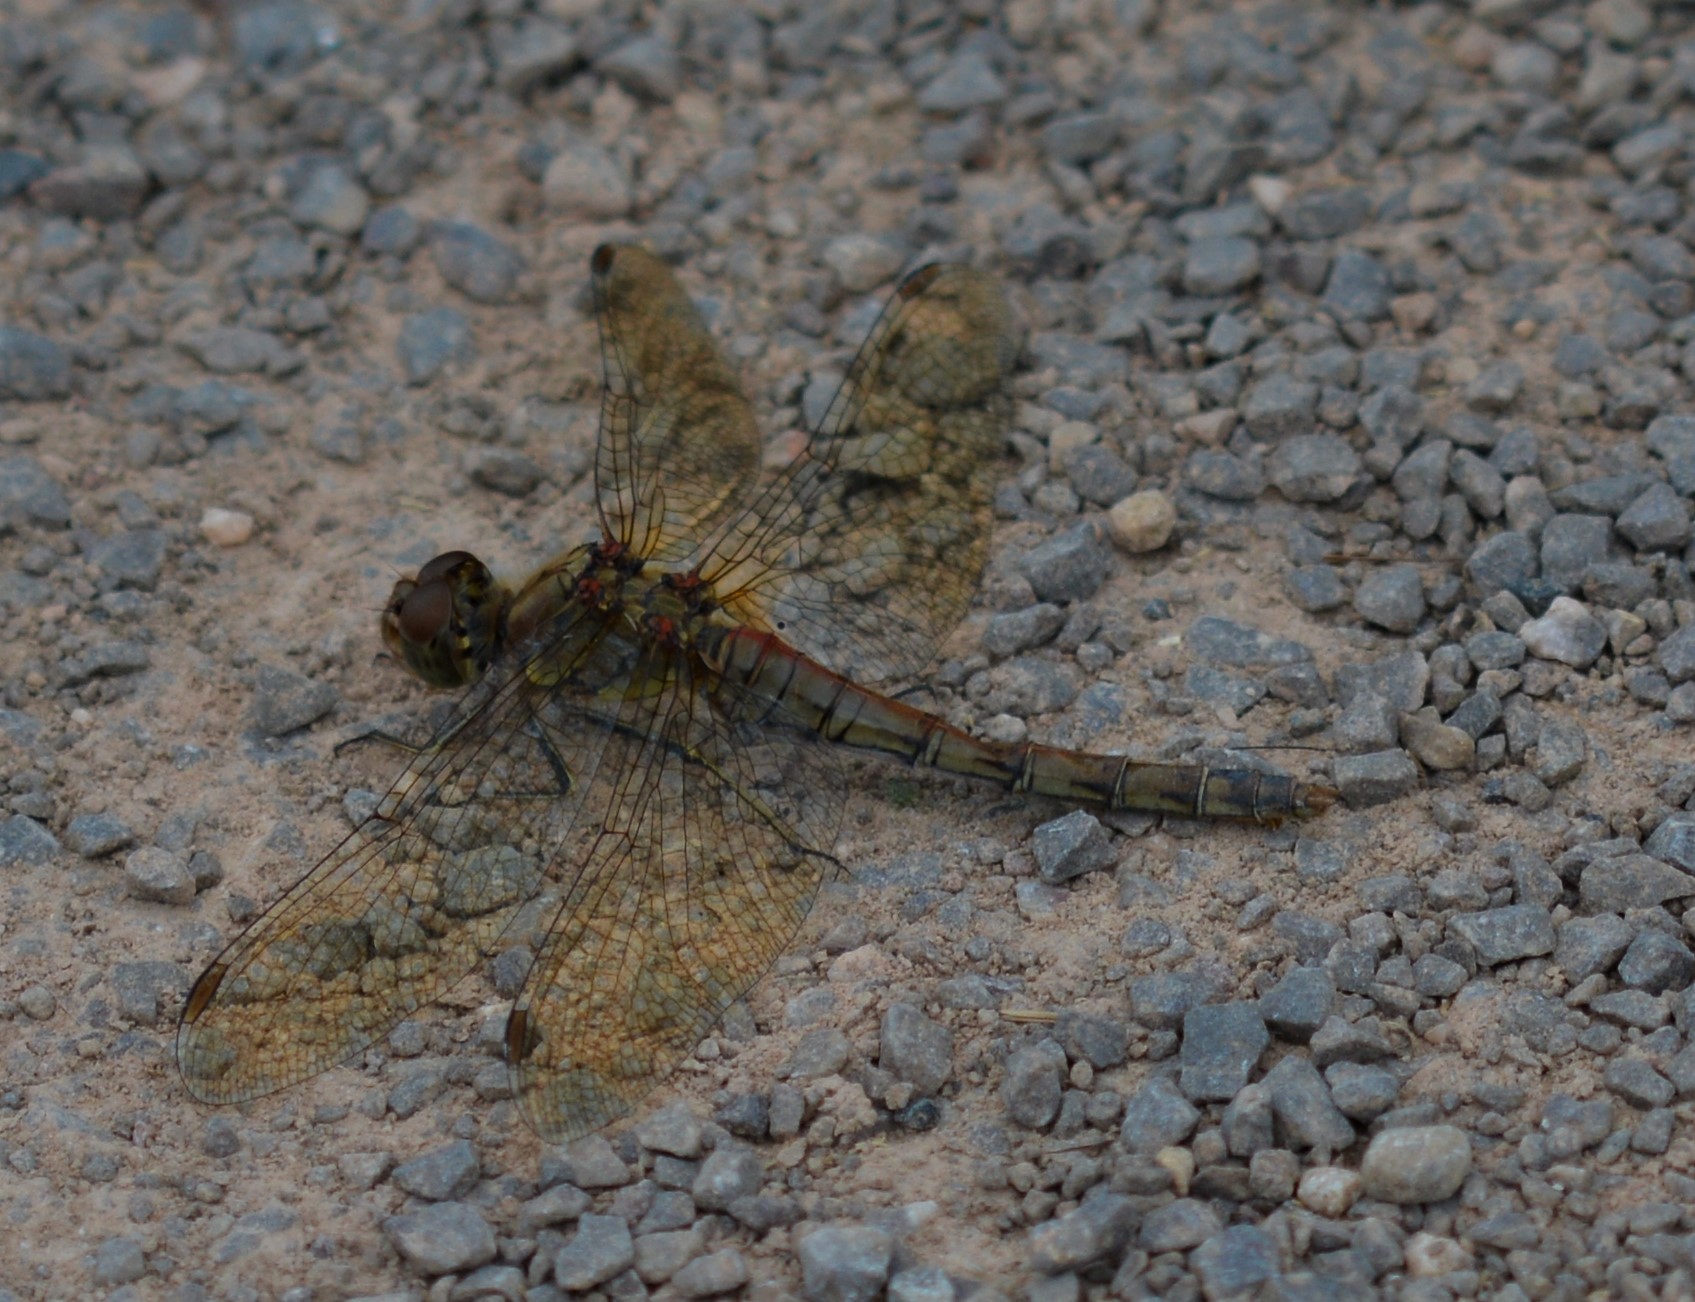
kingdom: Animalia
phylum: Arthropoda
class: Insecta
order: Odonata
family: Libellulidae
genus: Sympetrum
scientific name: Sympetrum striolatum
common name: Common darter
